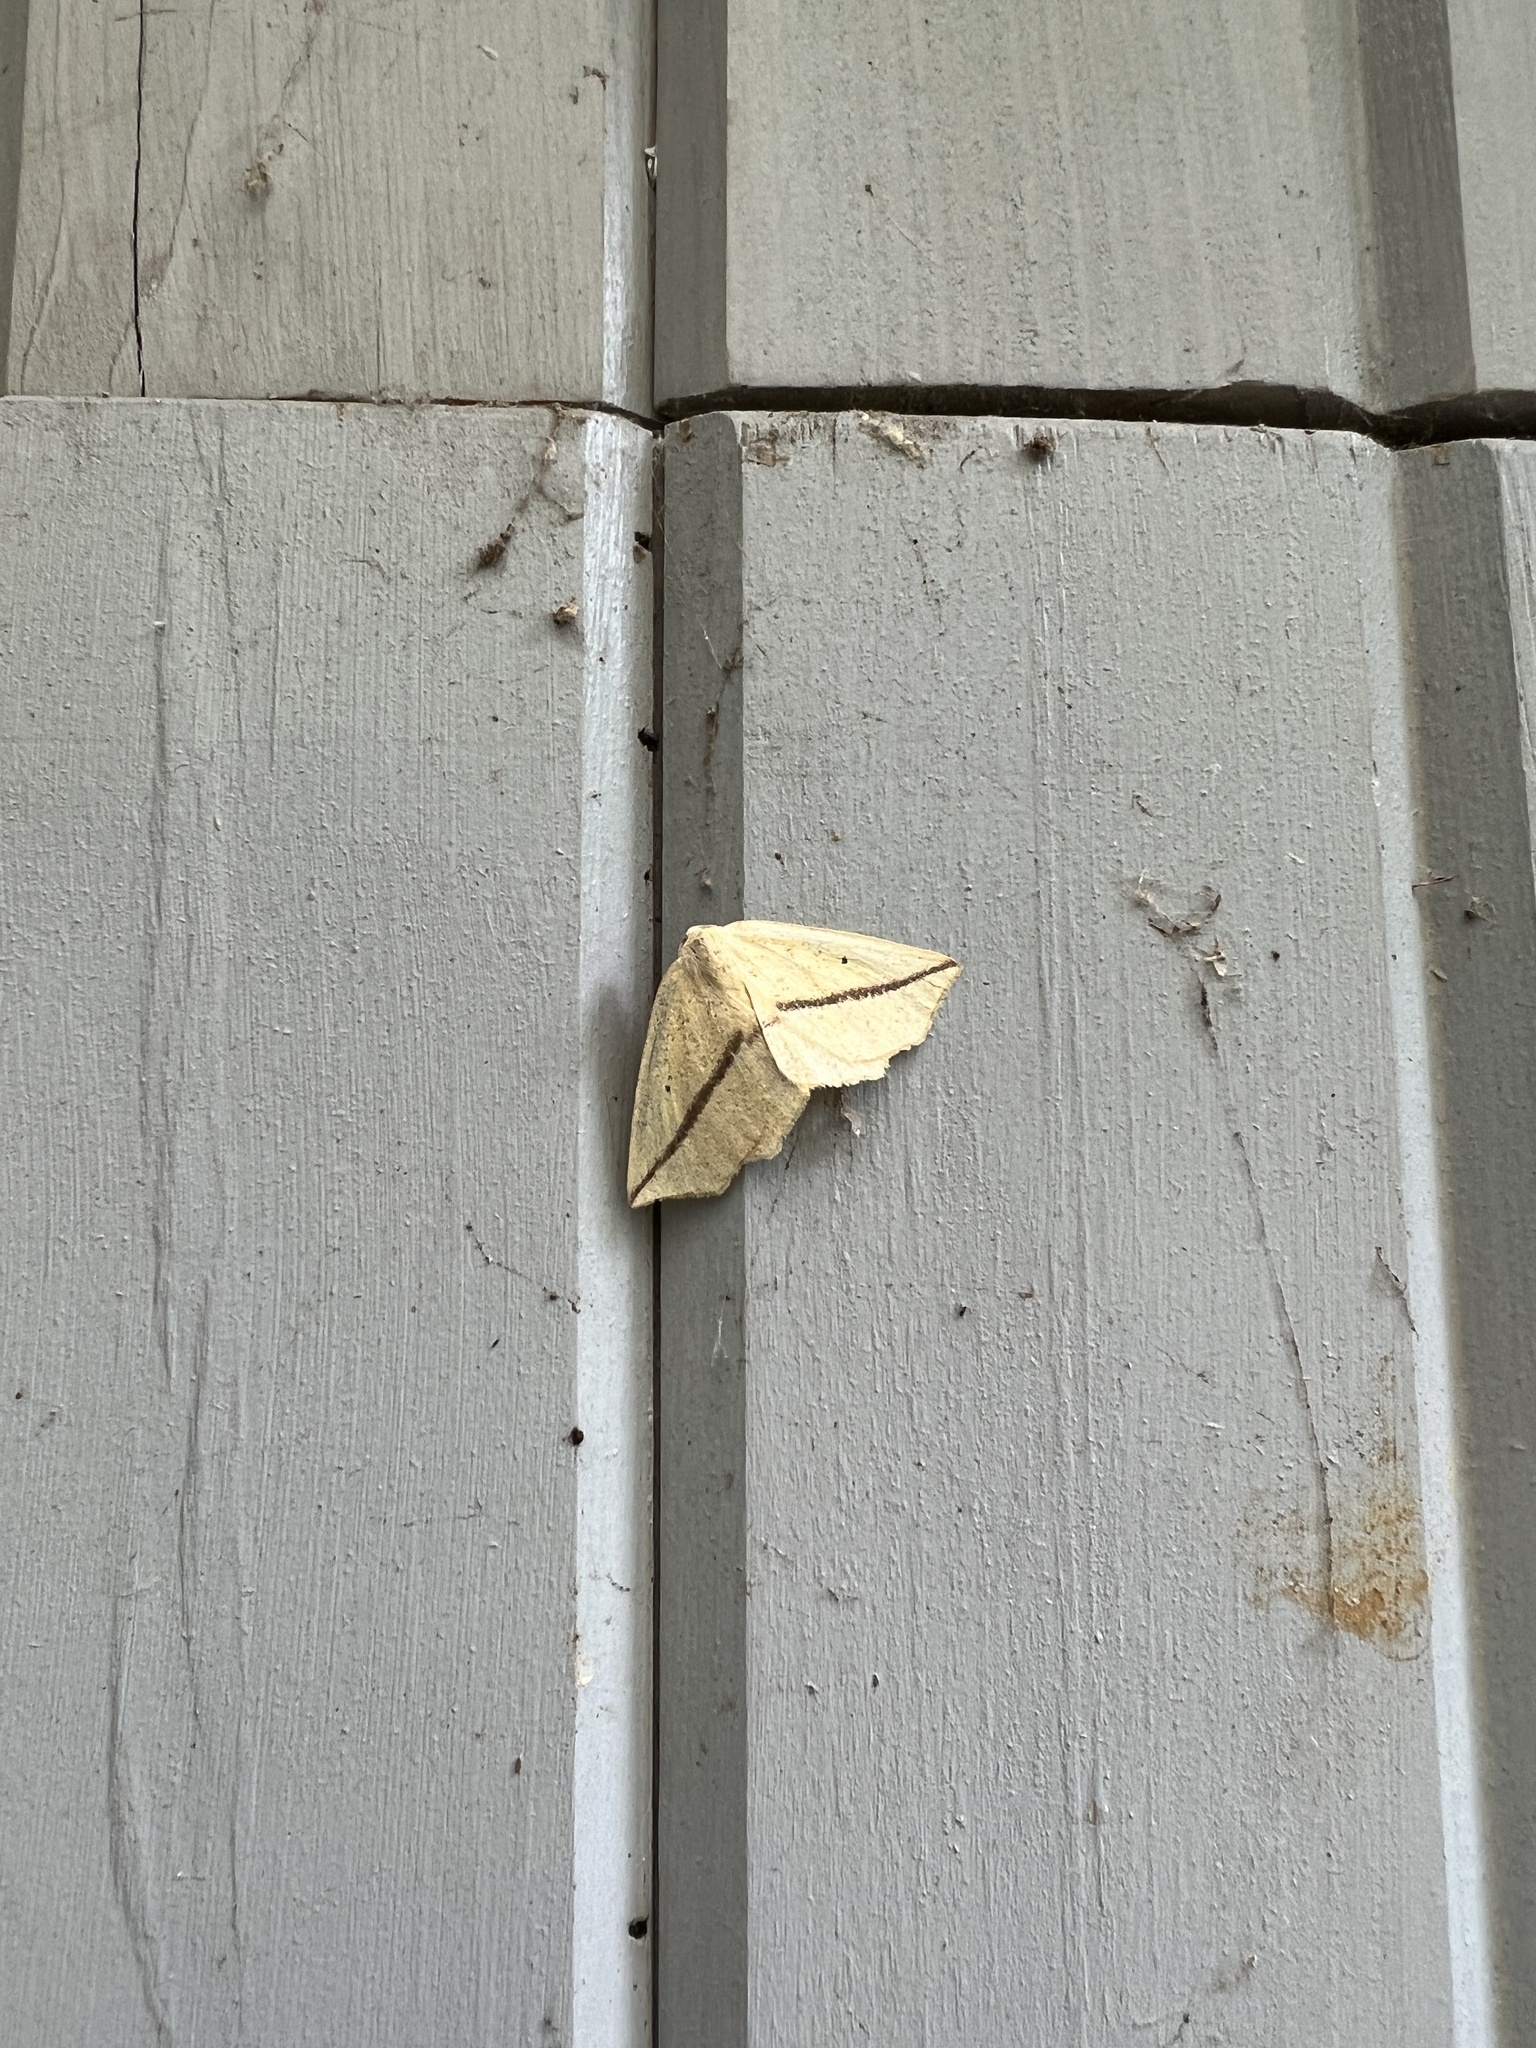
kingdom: Animalia
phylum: Arthropoda
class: Insecta
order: Lepidoptera
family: Geometridae
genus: Tetracis
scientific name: Tetracis crocallata
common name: Yellow slant-line
